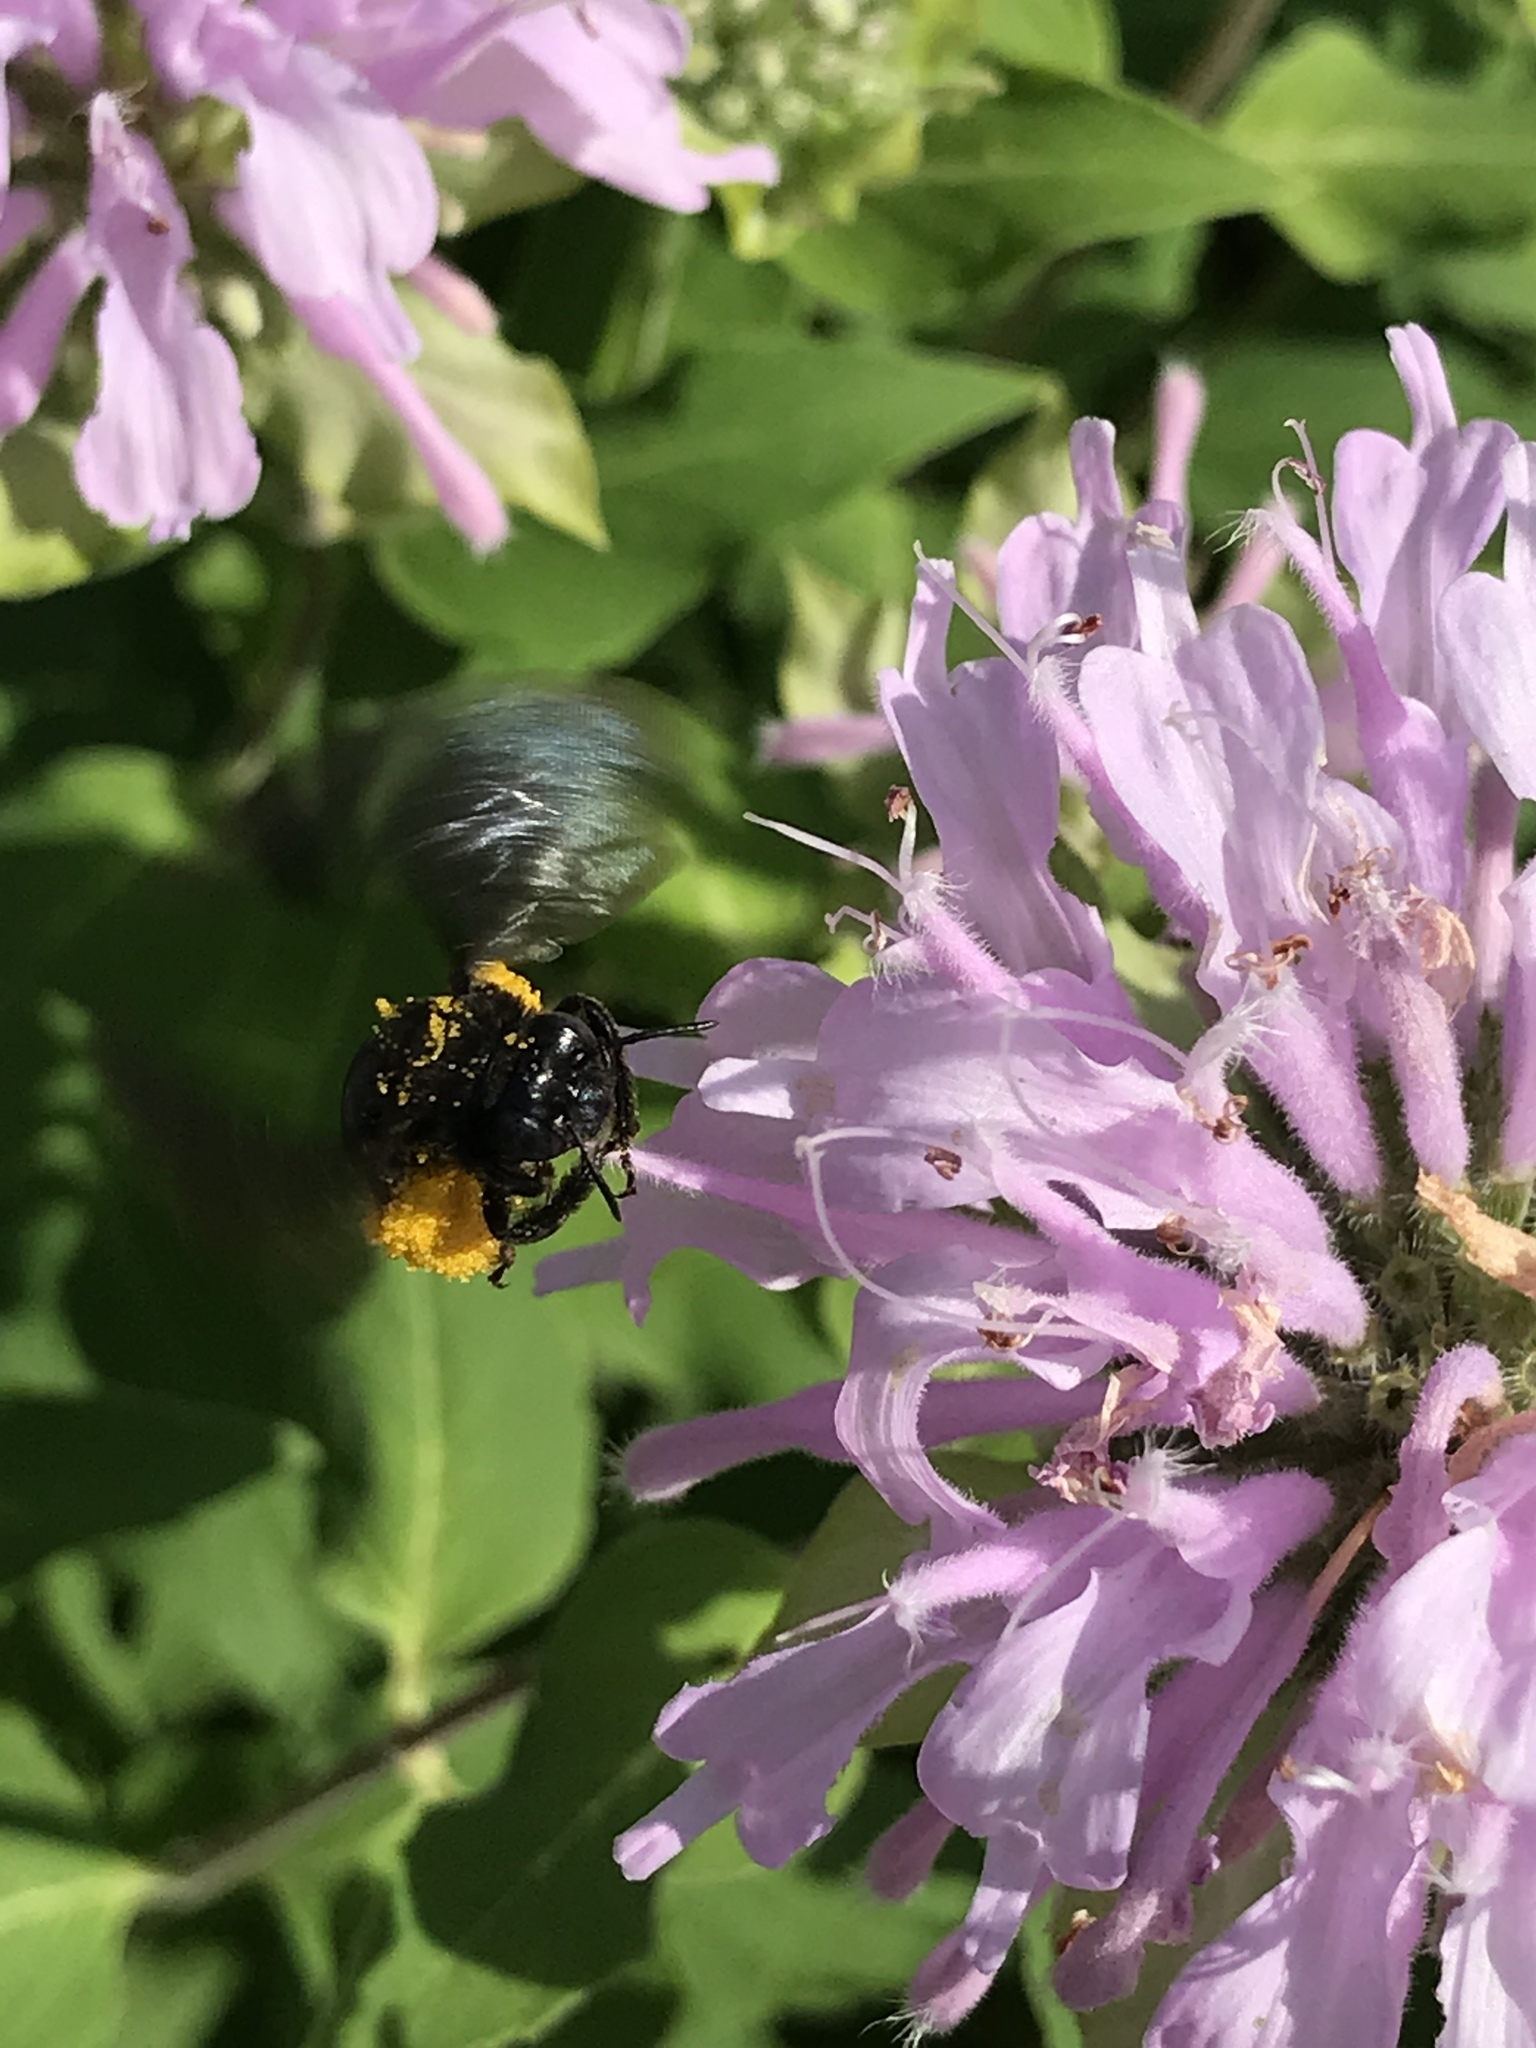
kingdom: Animalia
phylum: Arthropoda
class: Insecta
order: Hymenoptera
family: Apidae
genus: Melissodes
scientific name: Melissodes bimaculatus
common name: Two-spotted long-horned bee
